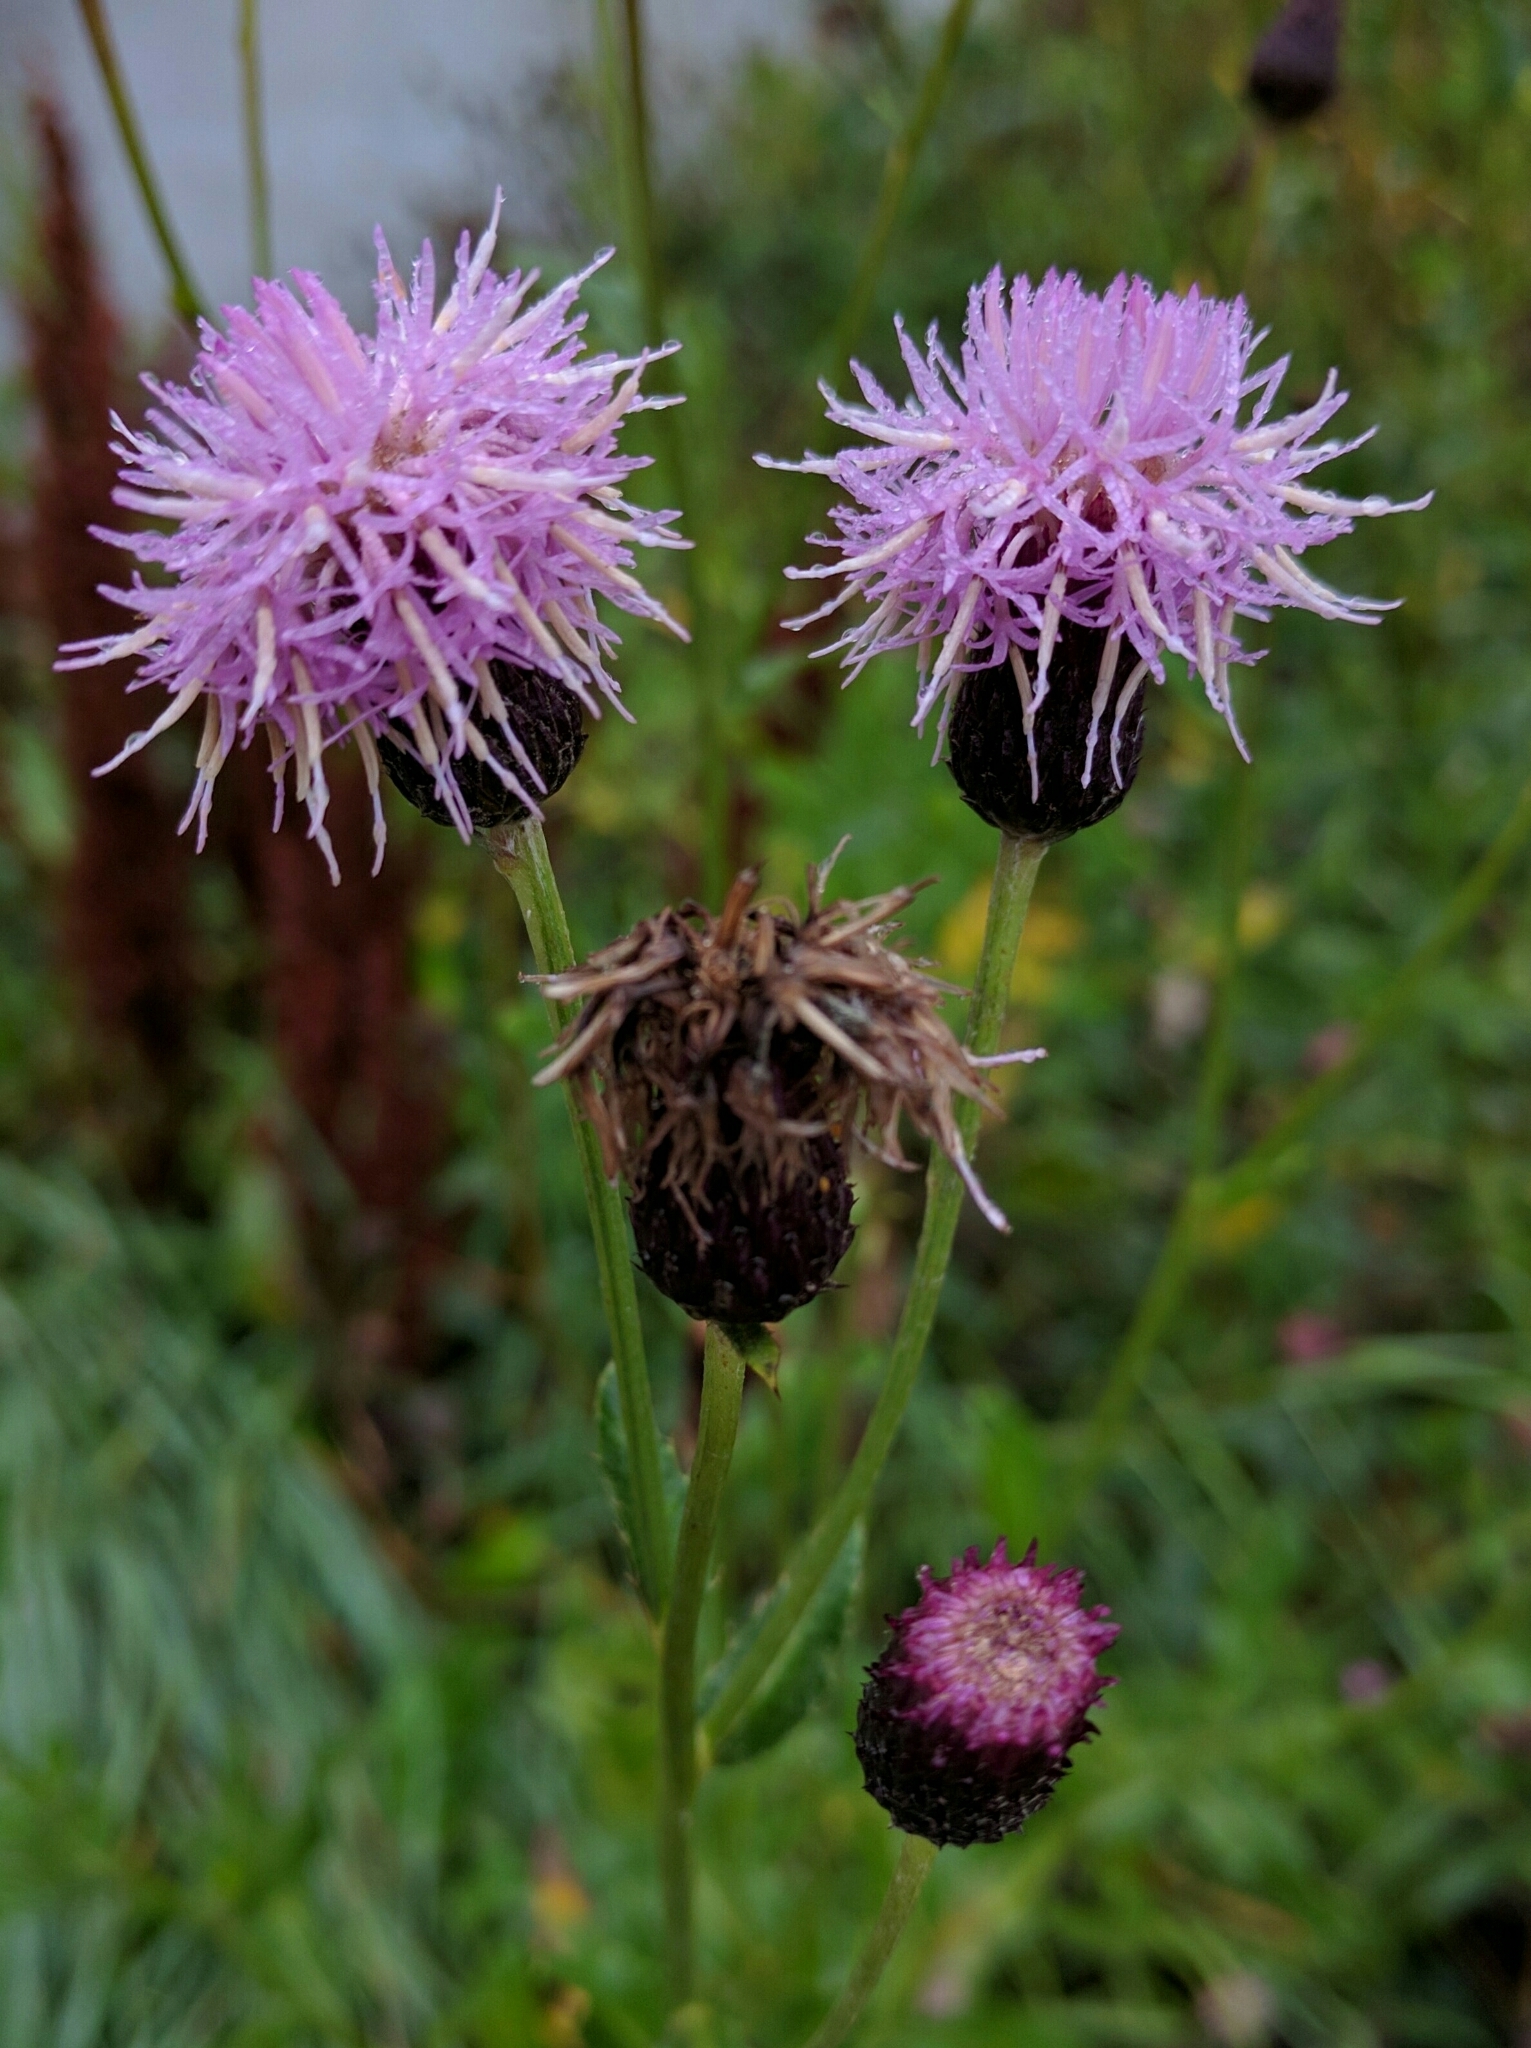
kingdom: Plantae
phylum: Tracheophyta
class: Magnoliopsida
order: Asterales
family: Asteraceae
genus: Cirsium
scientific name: Cirsium arvense
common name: Creeping thistle
